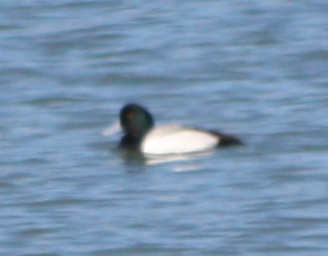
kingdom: Animalia
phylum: Chordata
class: Aves
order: Anseriformes
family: Anatidae
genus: Aythya
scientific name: Aythya marila
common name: Greater scaup
